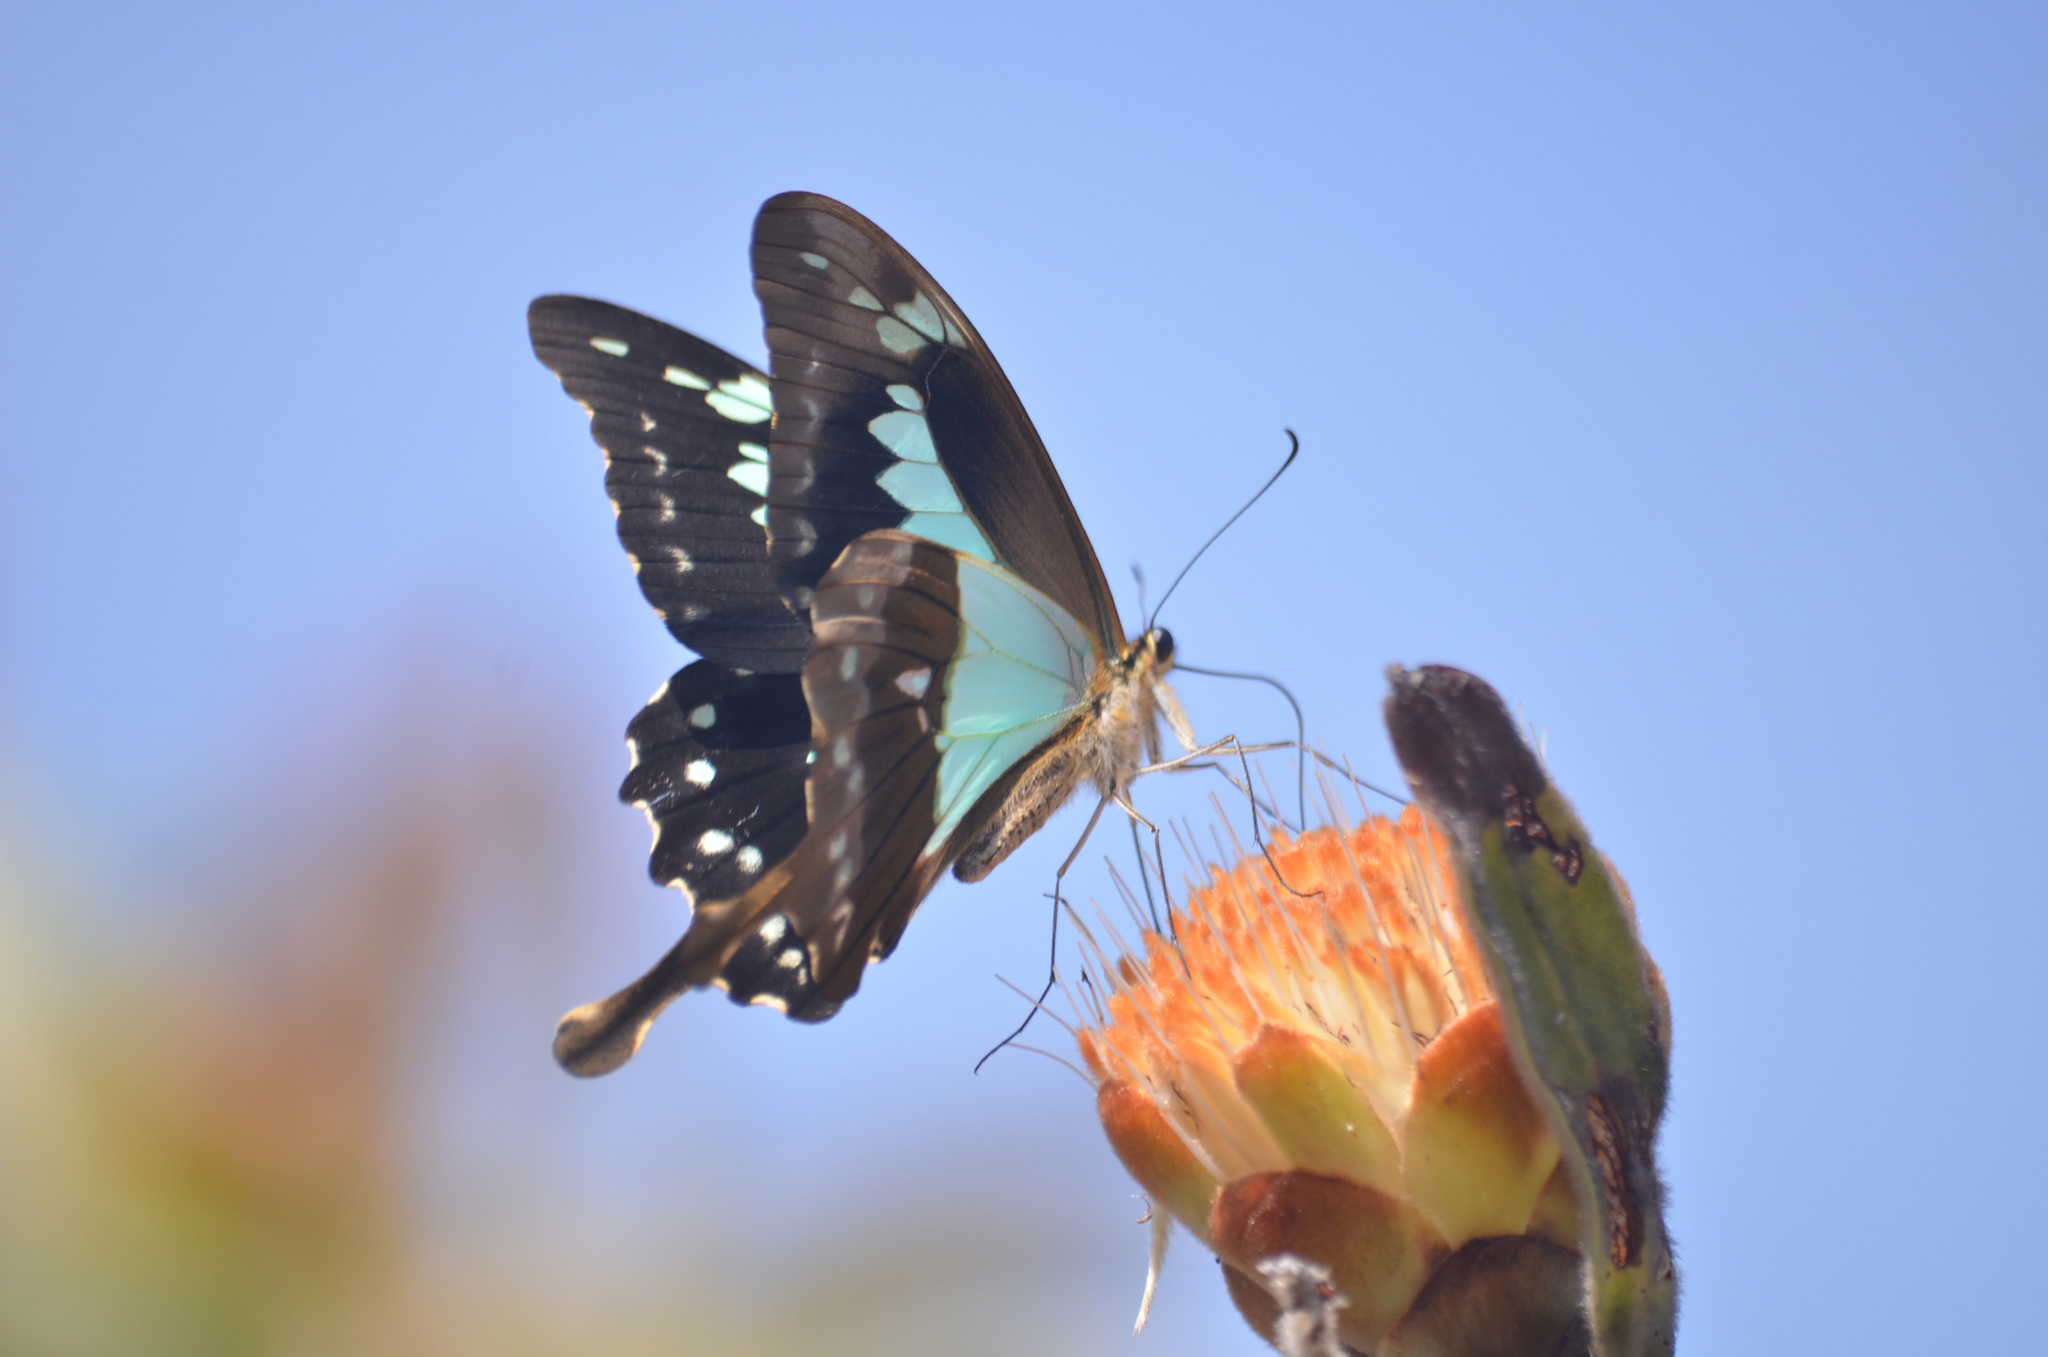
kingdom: Animalia
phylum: Arthropoda
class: Insecta
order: Lepidoptera
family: Papilionidae
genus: Papilio
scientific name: Papilio phorcas
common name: Apple-green swallowtail
